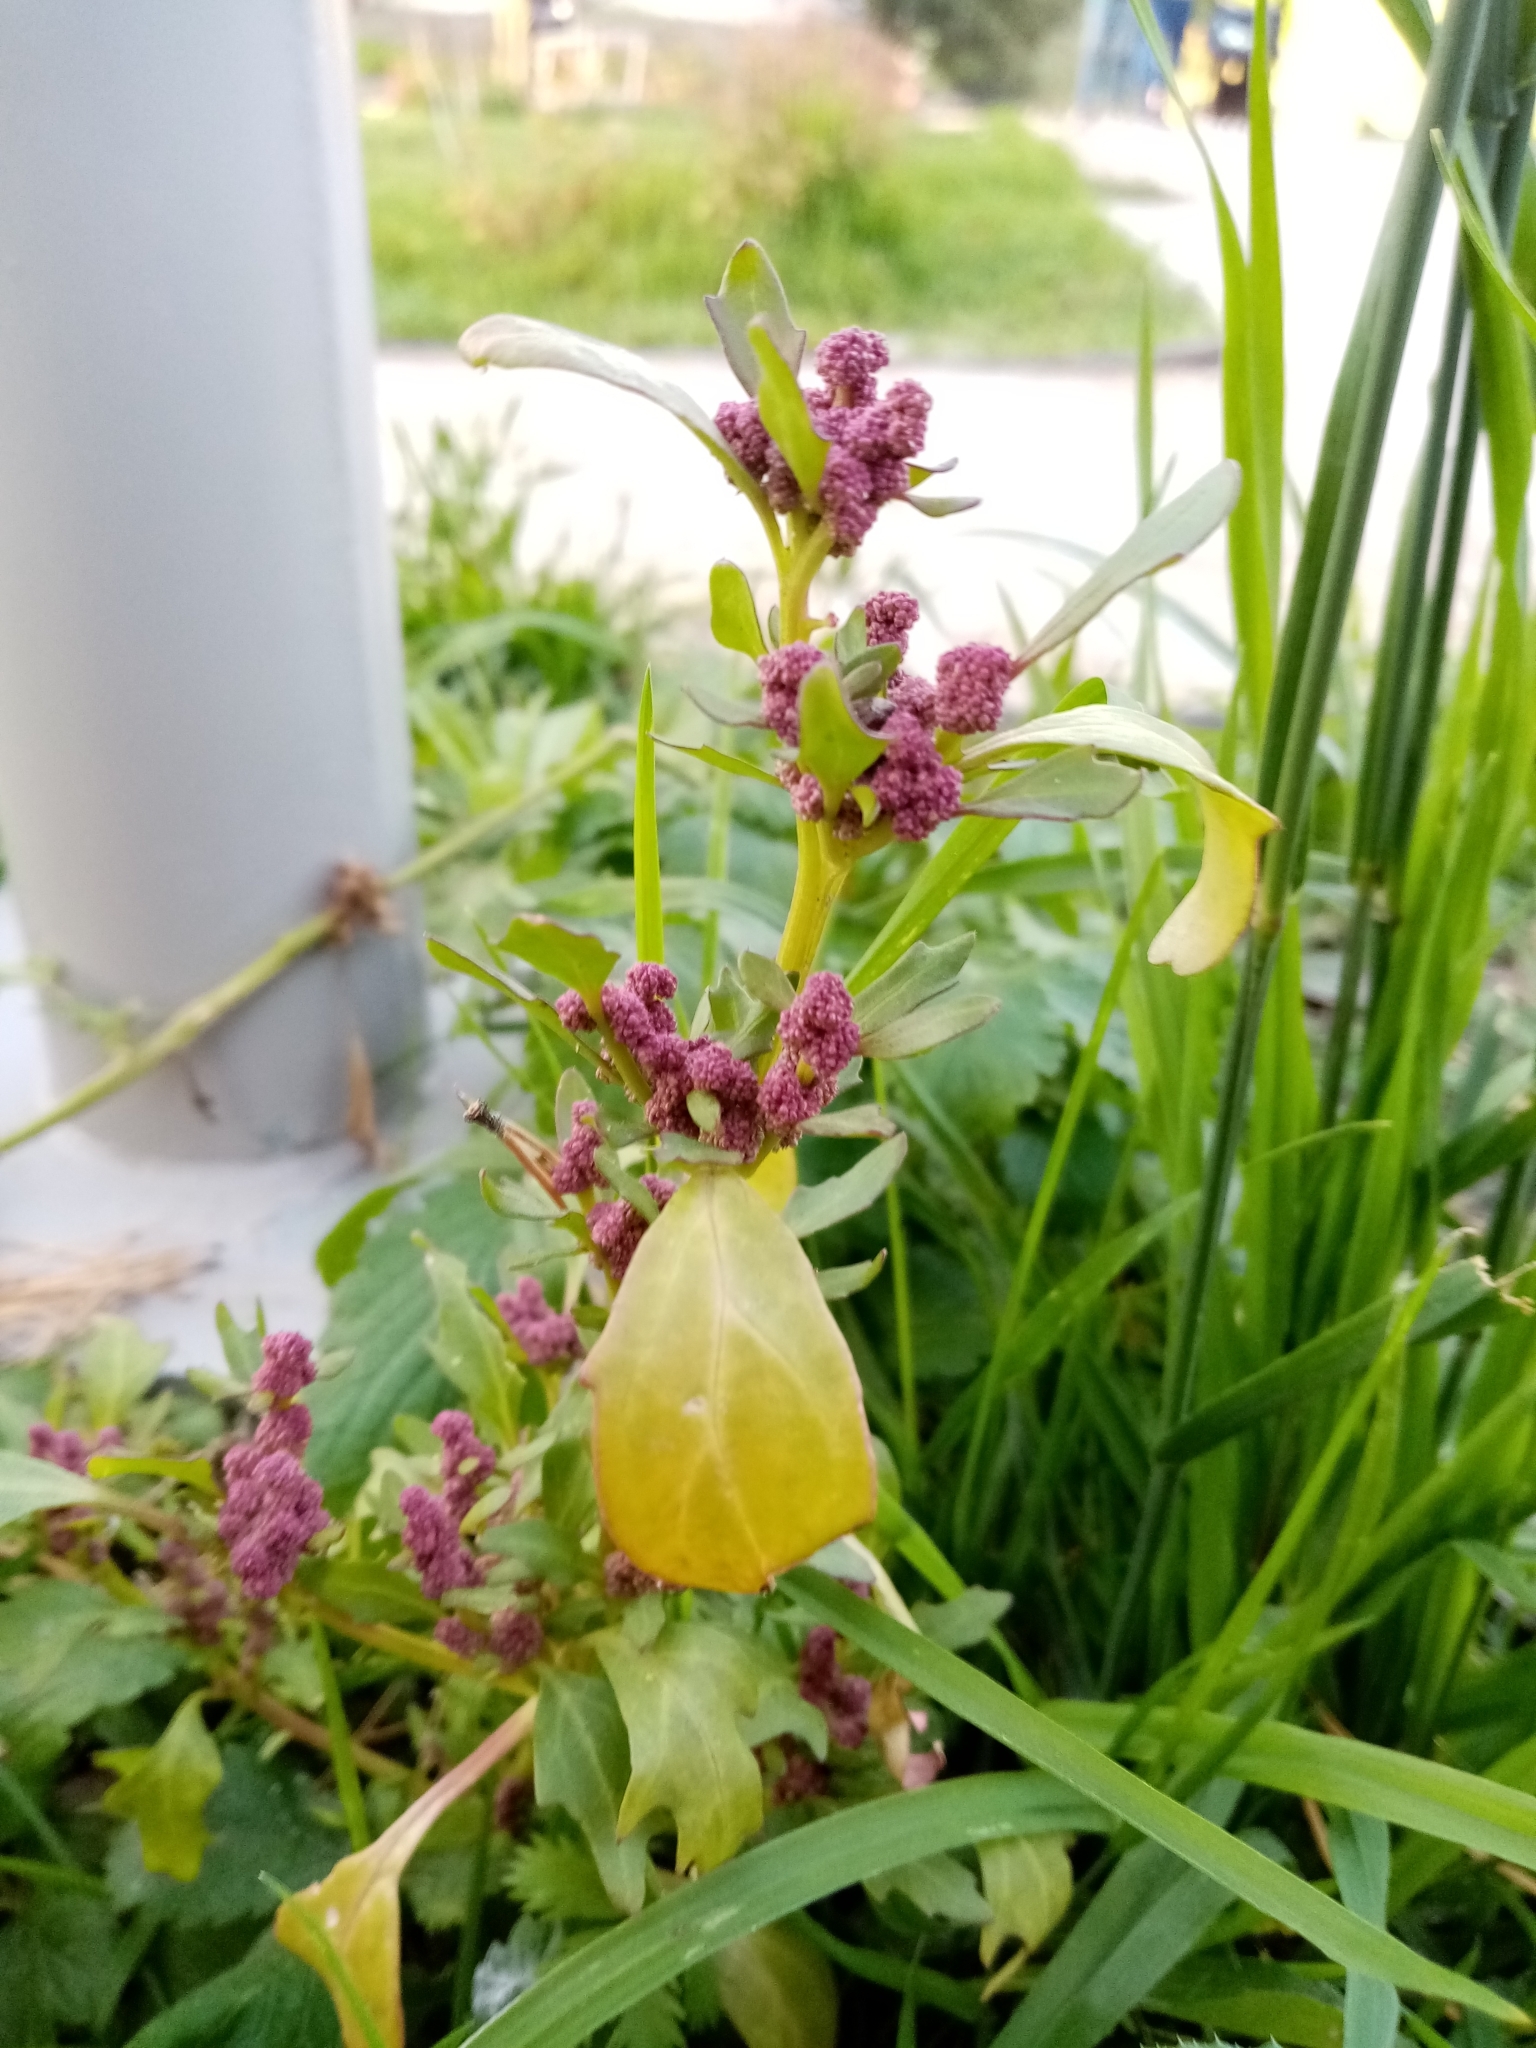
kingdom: Plantae
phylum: Tracheophyta
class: Magnoliopsida
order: Caryophyllales
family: Amaranthaceae
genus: Oxybasis
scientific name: Oxybasis rubra
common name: Red goosefoot
